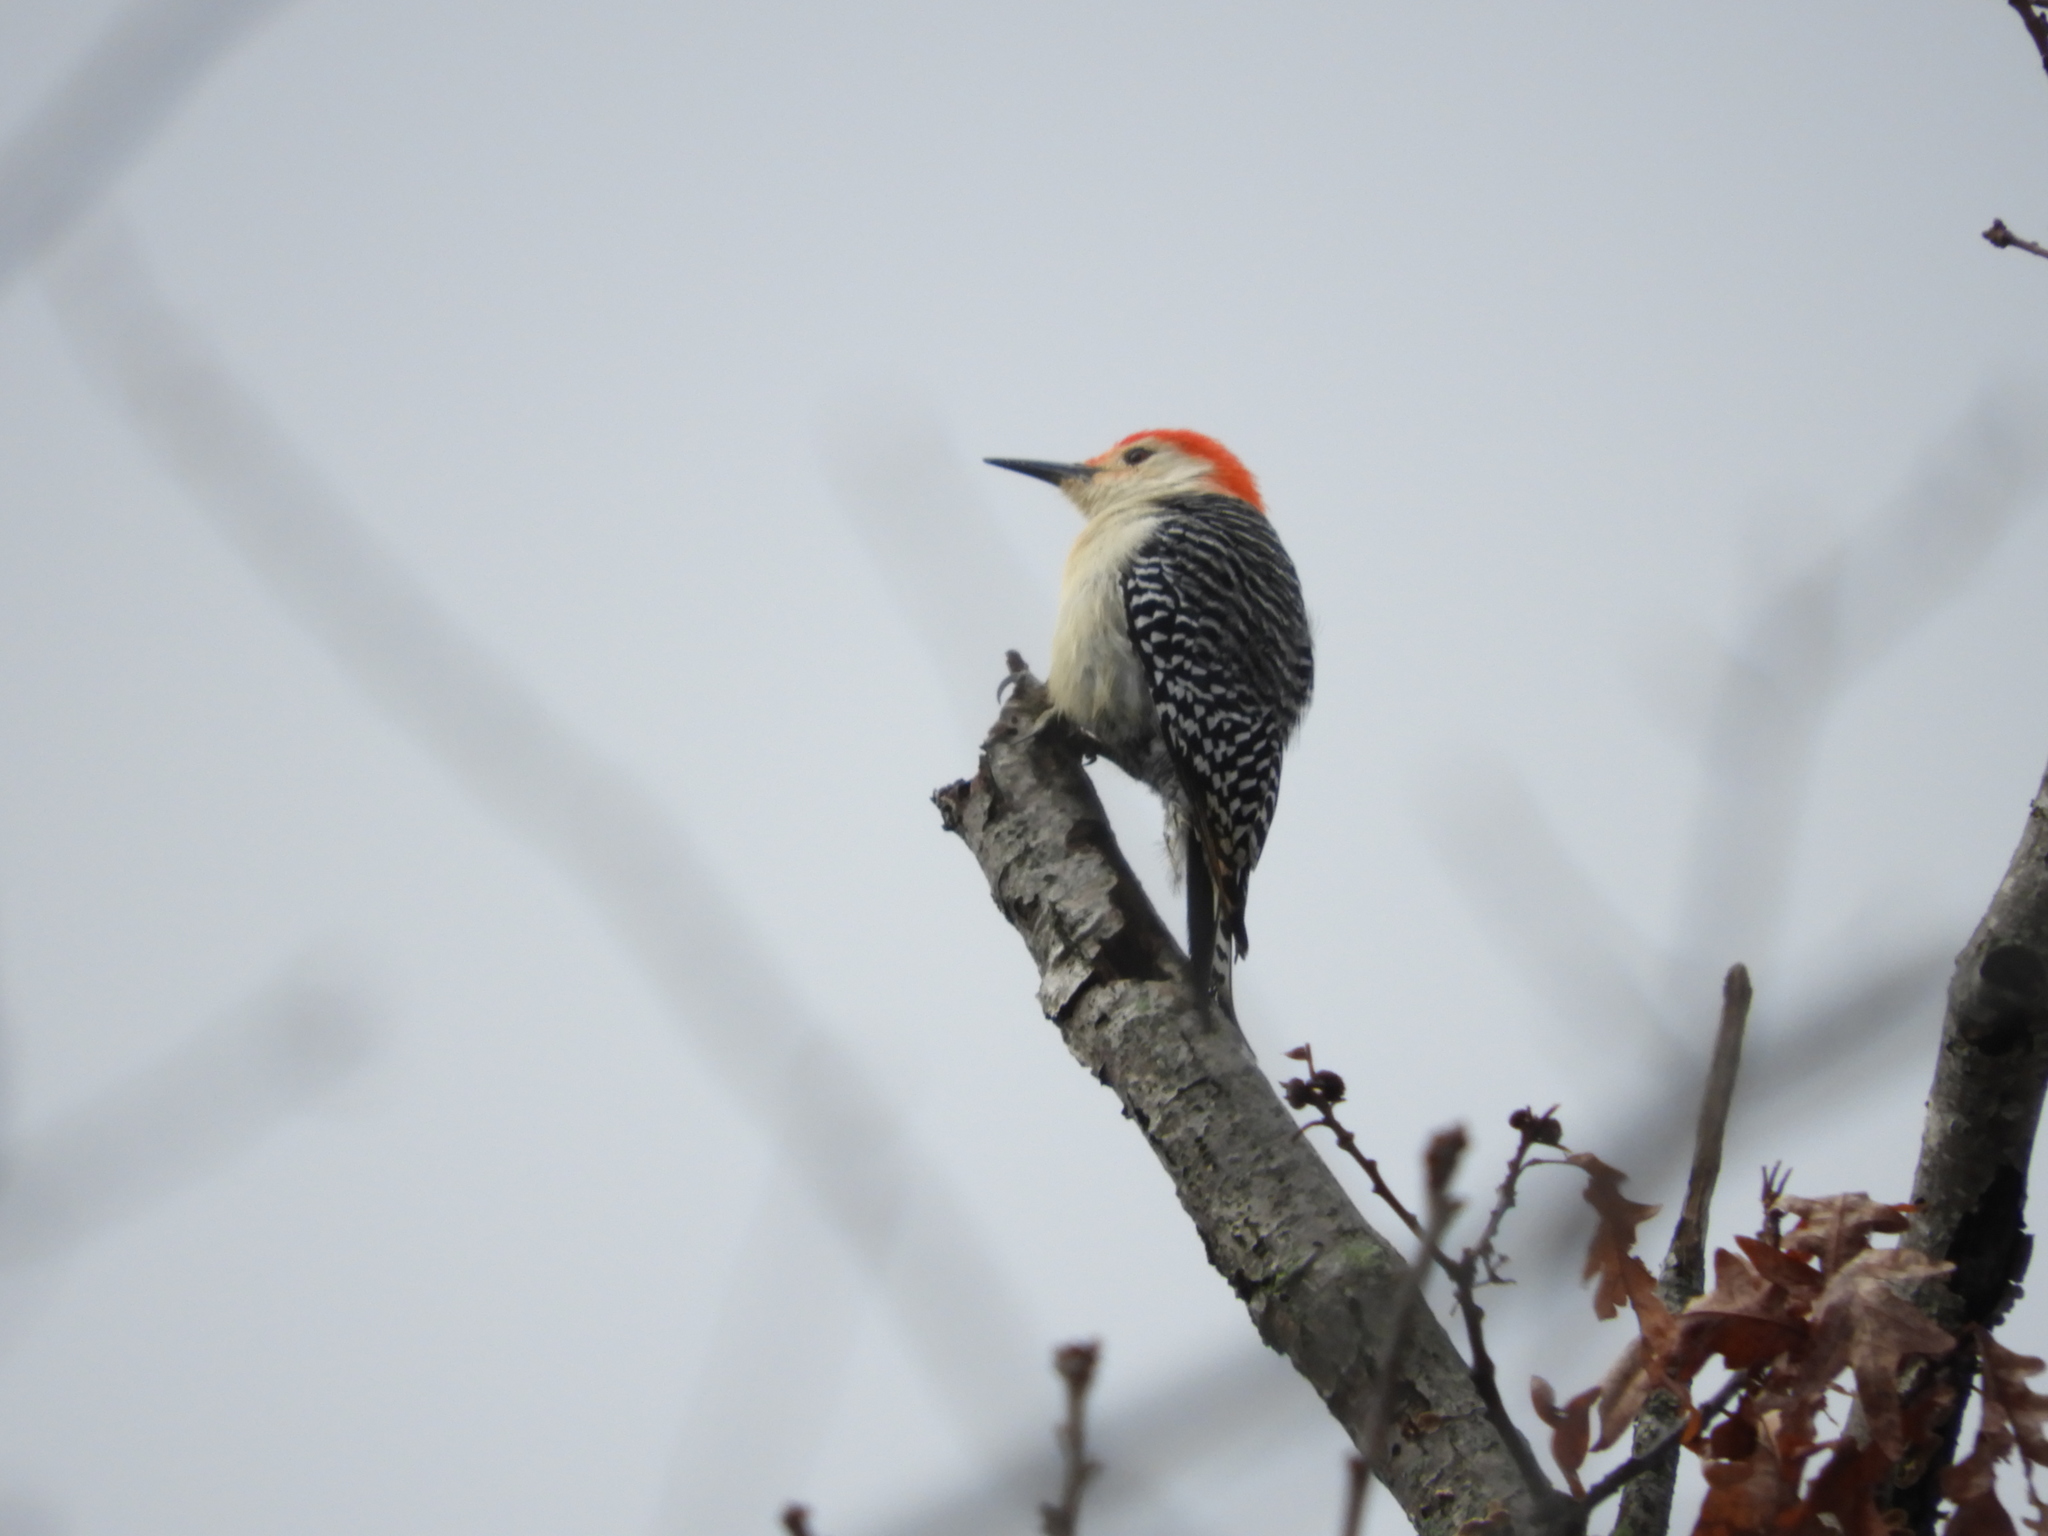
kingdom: Animalia
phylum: Chordata
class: Aves
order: Piciformes
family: Picidae
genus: Melanerpes
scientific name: Melanerpes carolinus
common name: Red-bellied woodpecker
